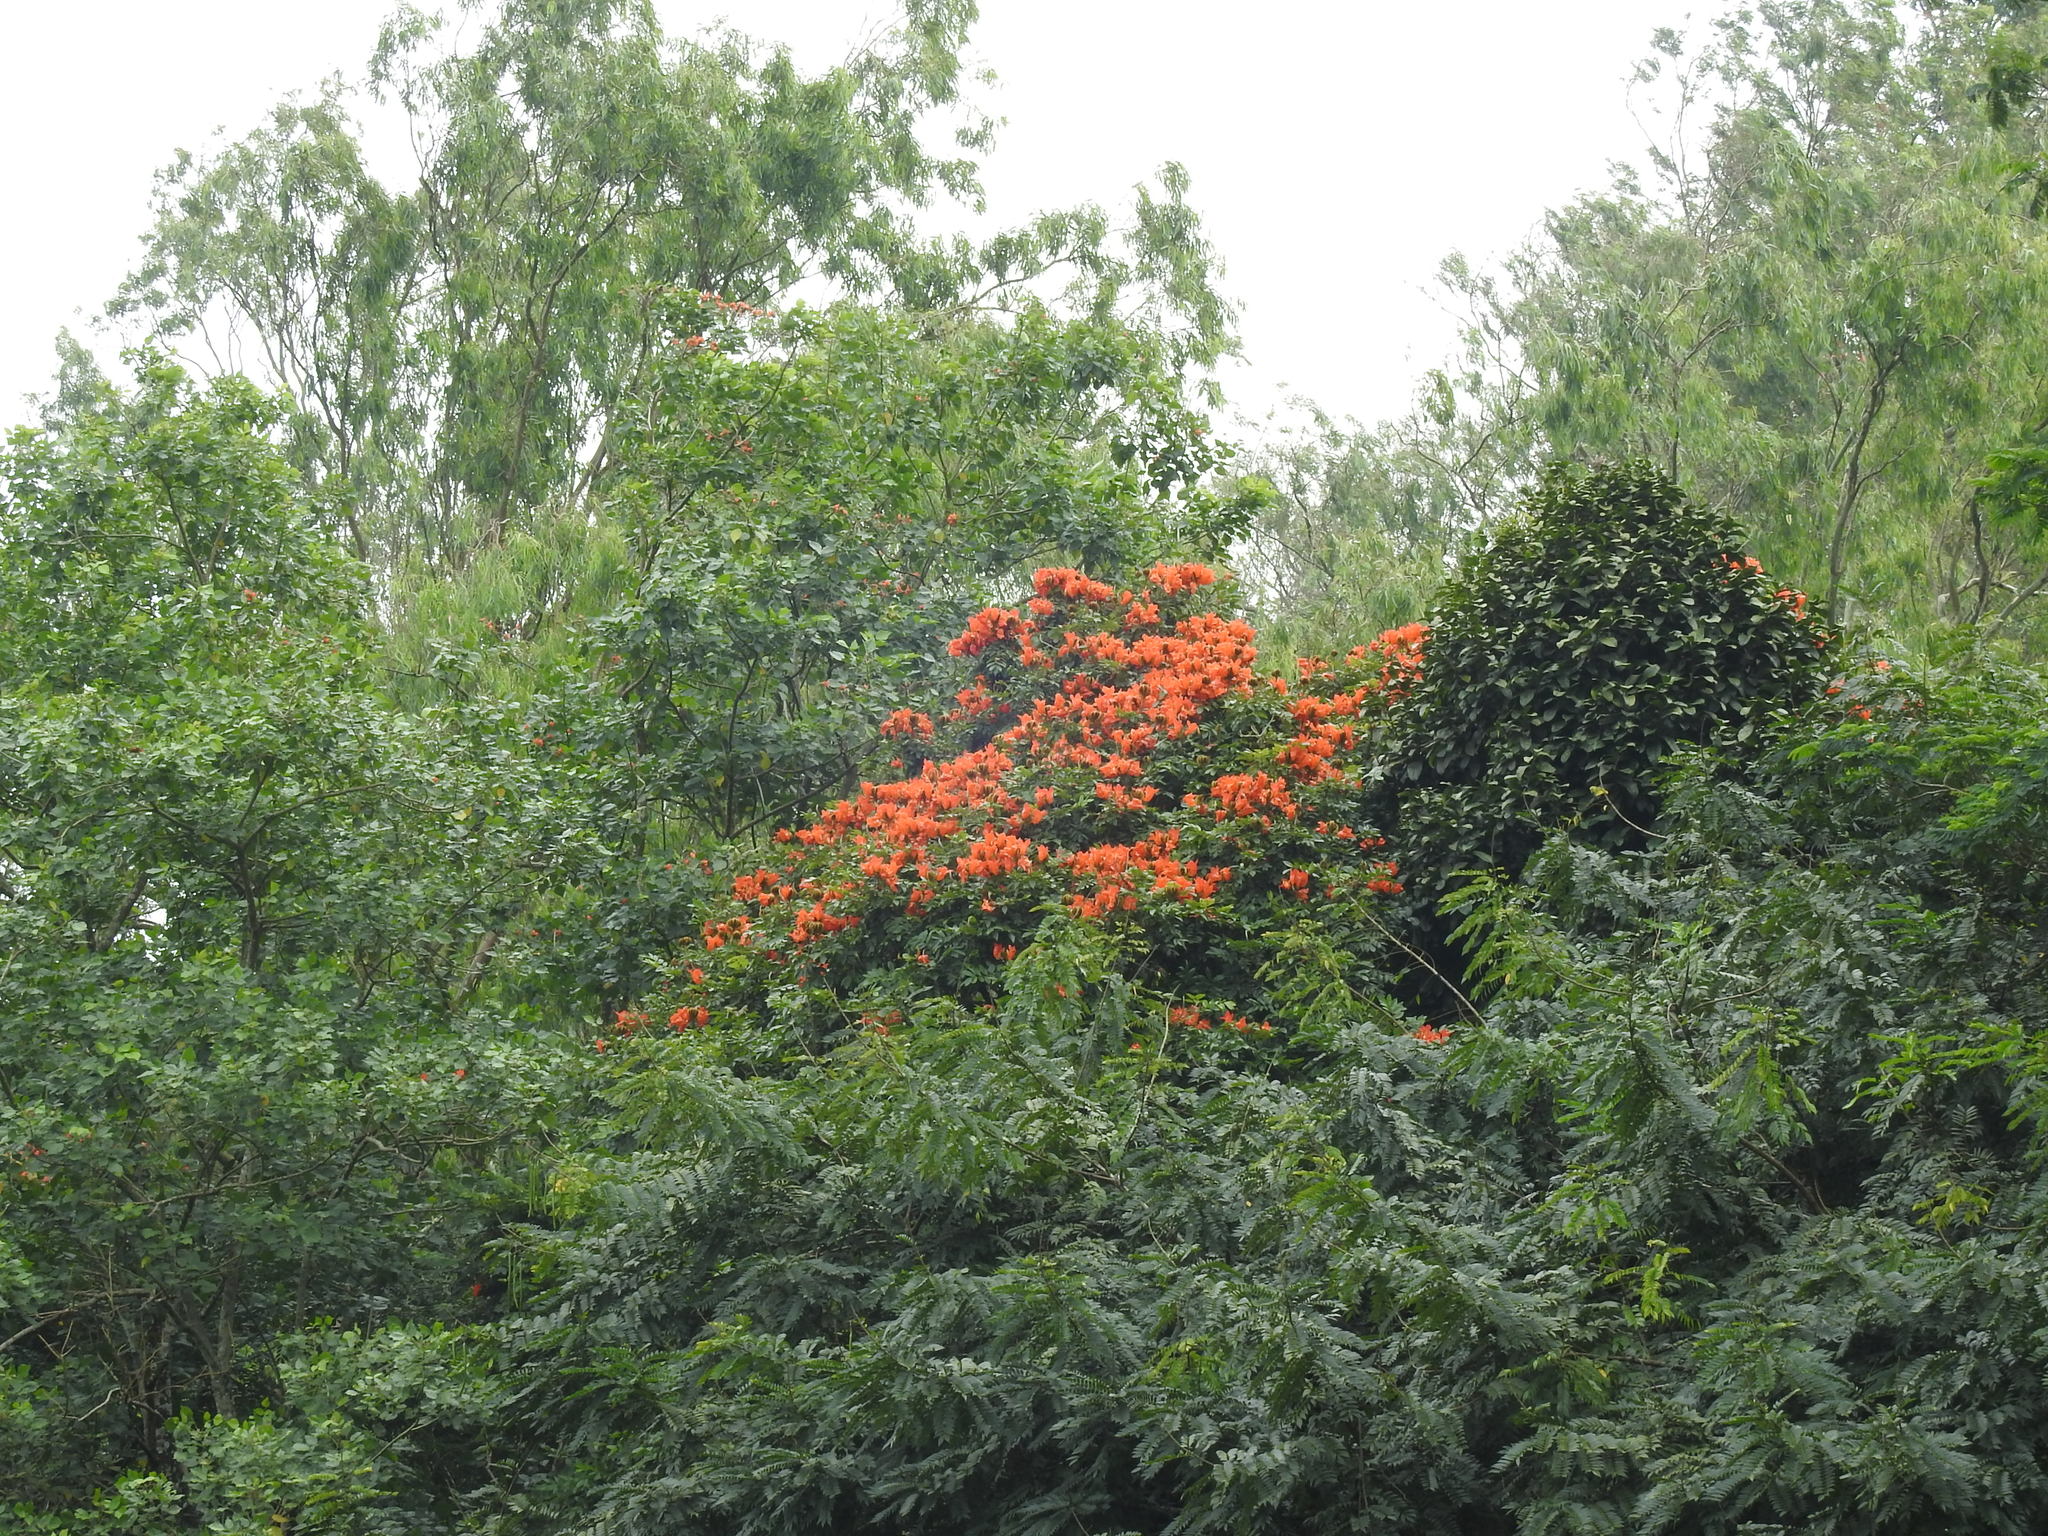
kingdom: Plantae
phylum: Tracheophyta
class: Magnoliopsida
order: Lamiales
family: Bignoniaceae
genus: Spathodea
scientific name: Spathodea campanulata
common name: African tuliptree
